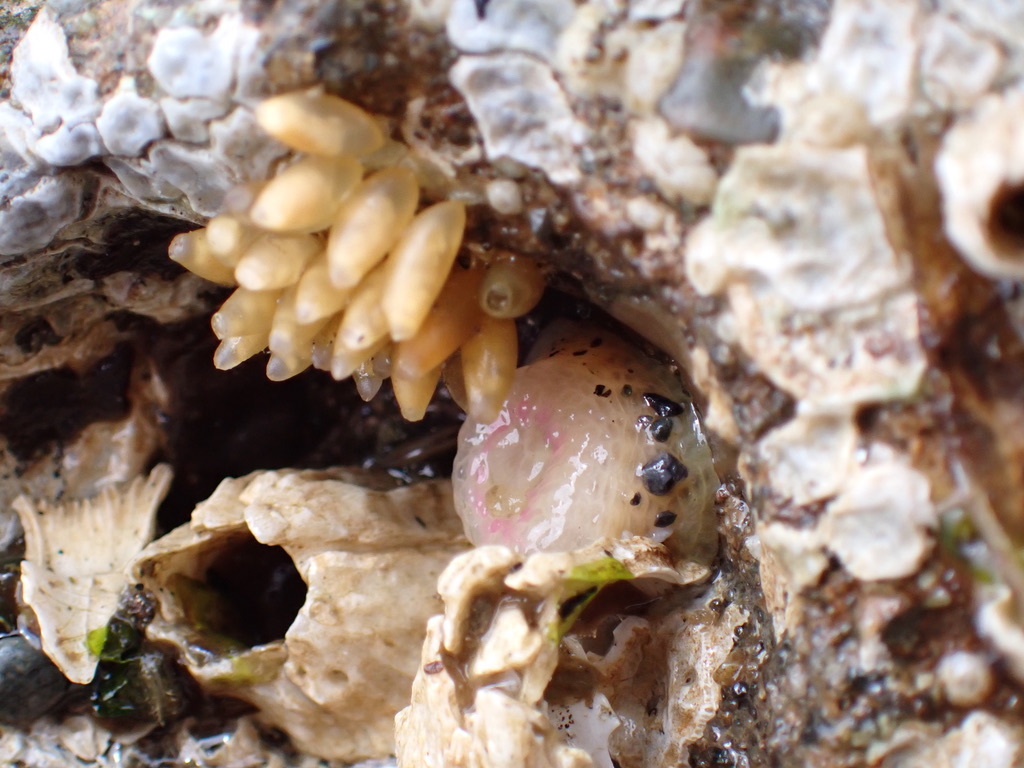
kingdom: Animalia
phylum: Cnidaria
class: Anthozoa
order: Actiniaria
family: Actiniidae
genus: Anthopleura
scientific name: Anthopleura elegantissima
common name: Clonal anemone
